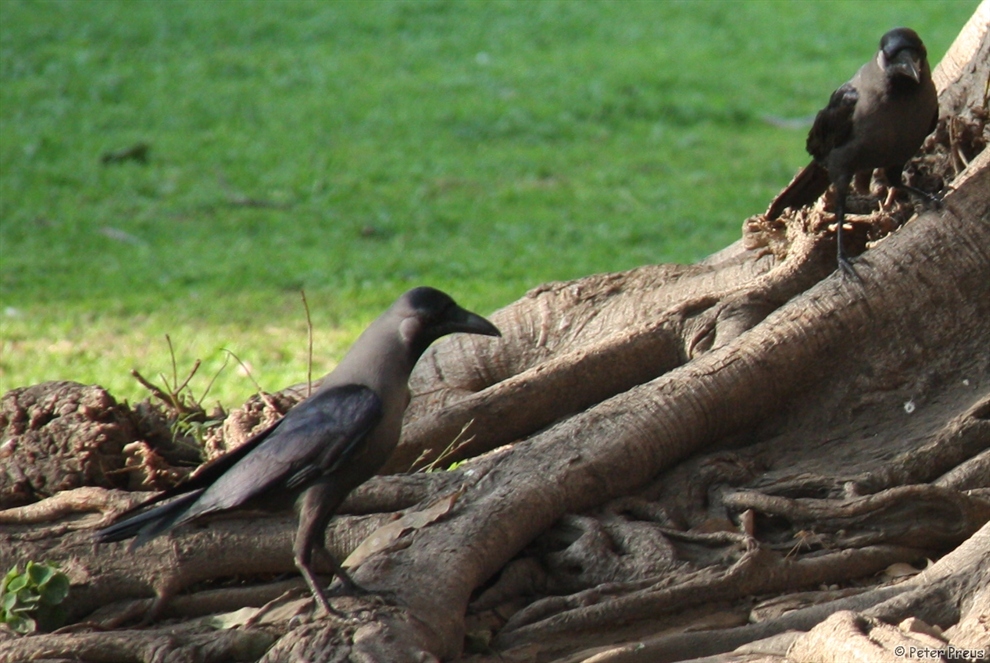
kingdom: Animalia
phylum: Chordata
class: Aves
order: Passeriformes
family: Corvidae
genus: Corvus
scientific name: Corvus splendens
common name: House crow
